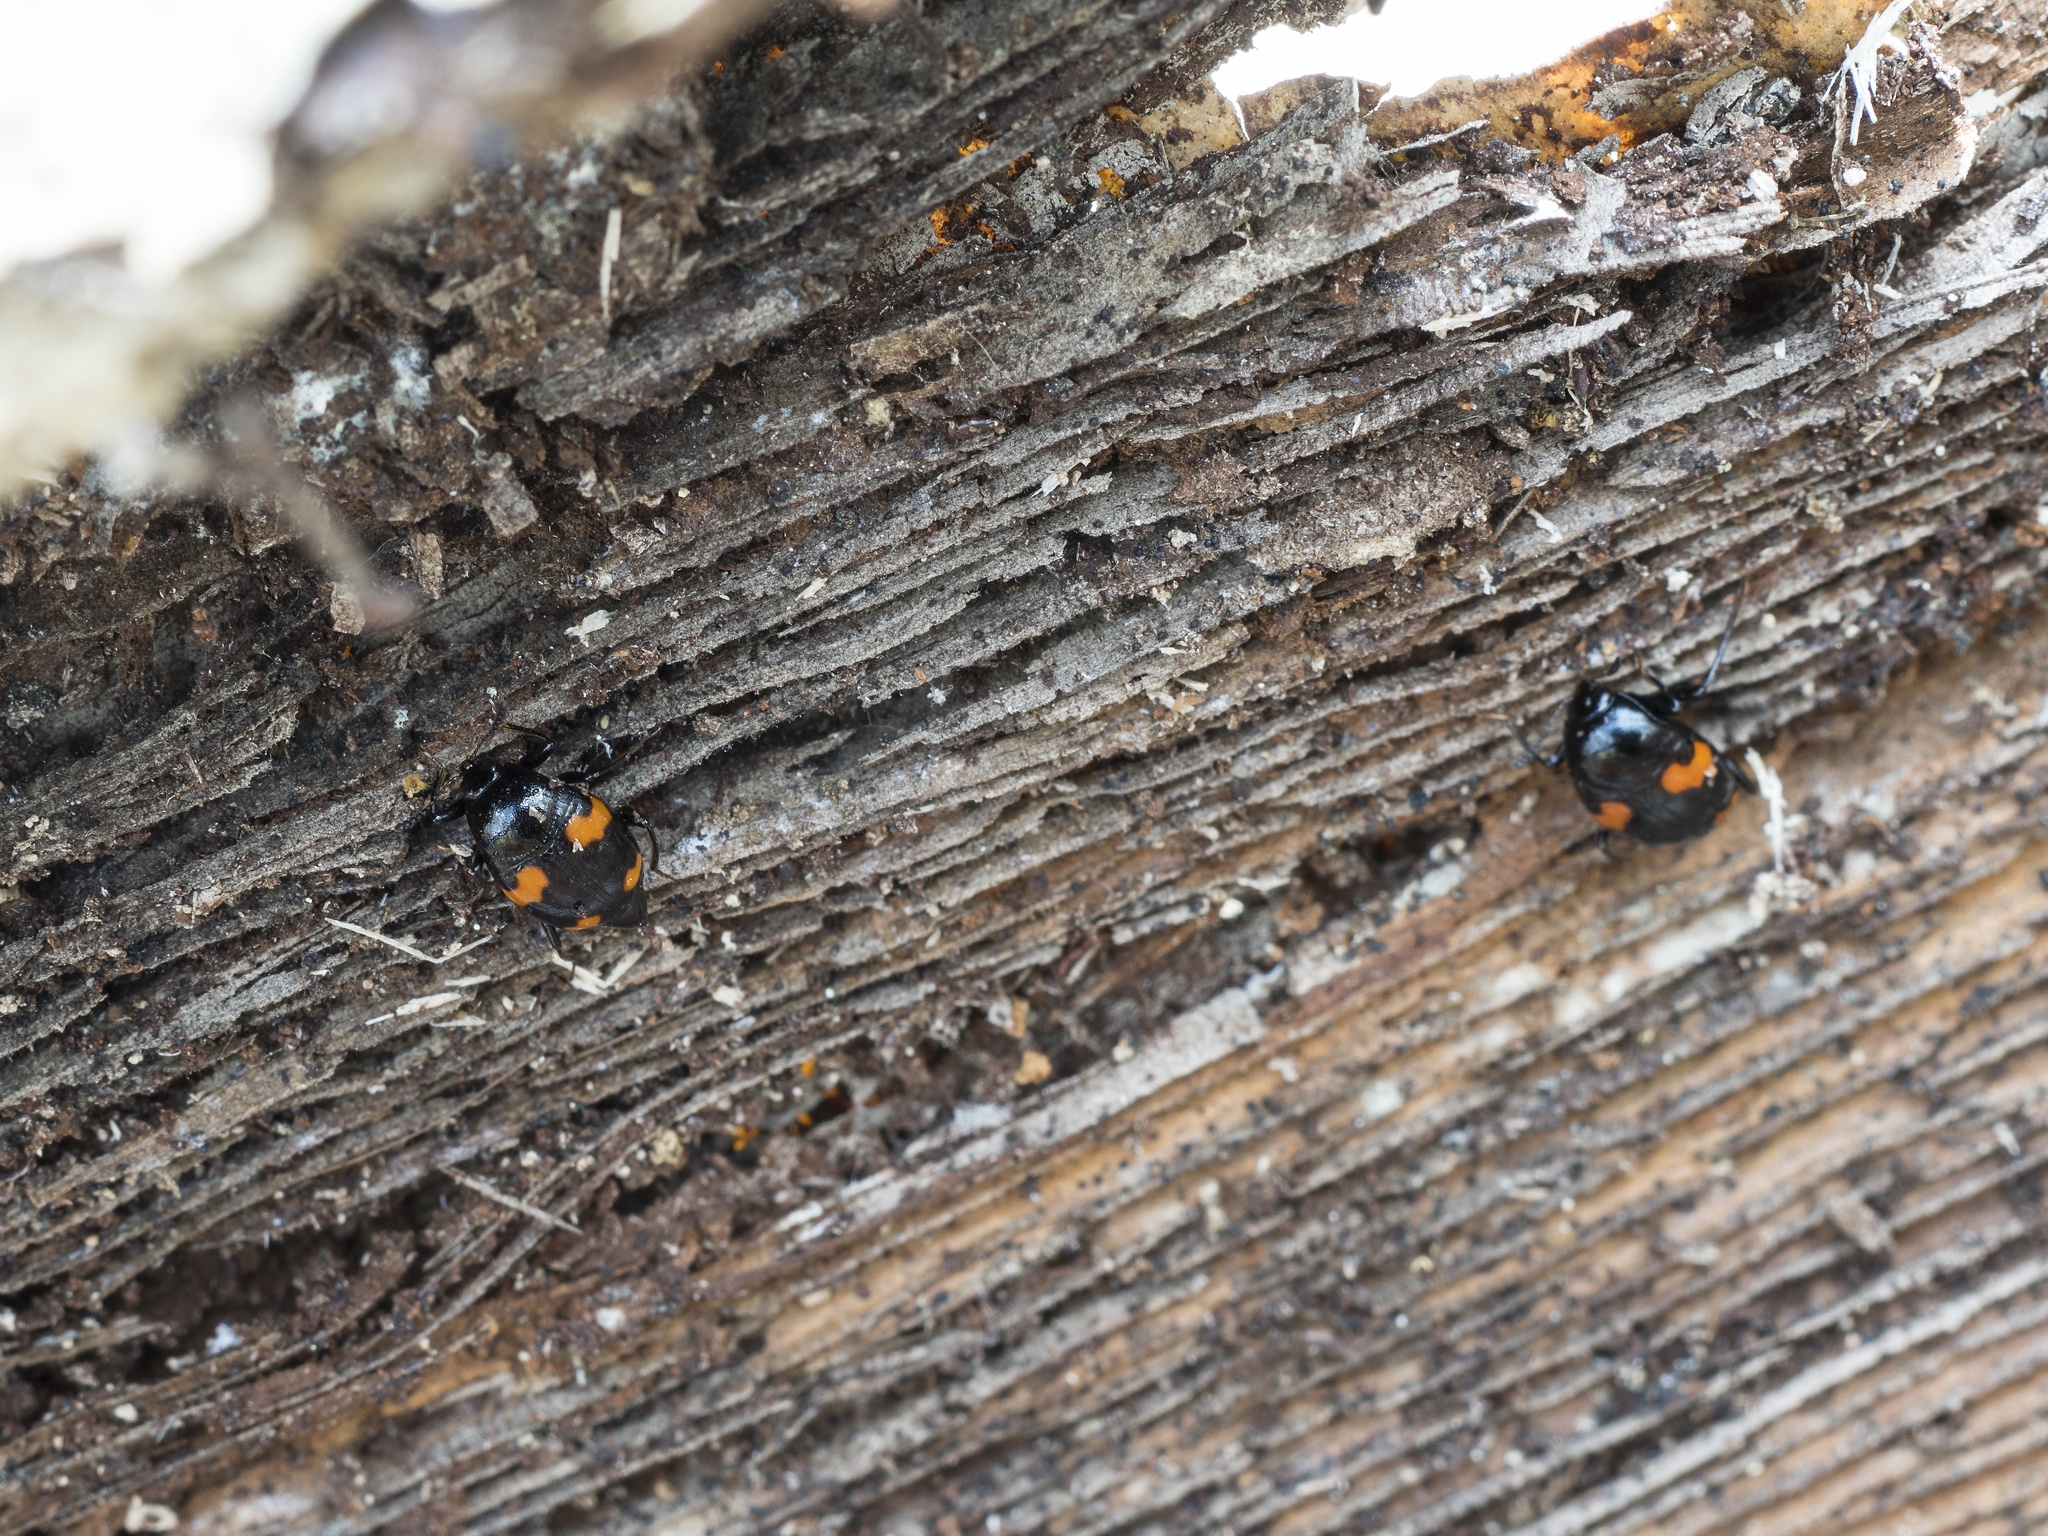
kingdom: Animalia
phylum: Arthropoda
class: Insecta
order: Coleoptera
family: Staphylinidae
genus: Scaphidium
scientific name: Scaphidium quadrimaculatum
